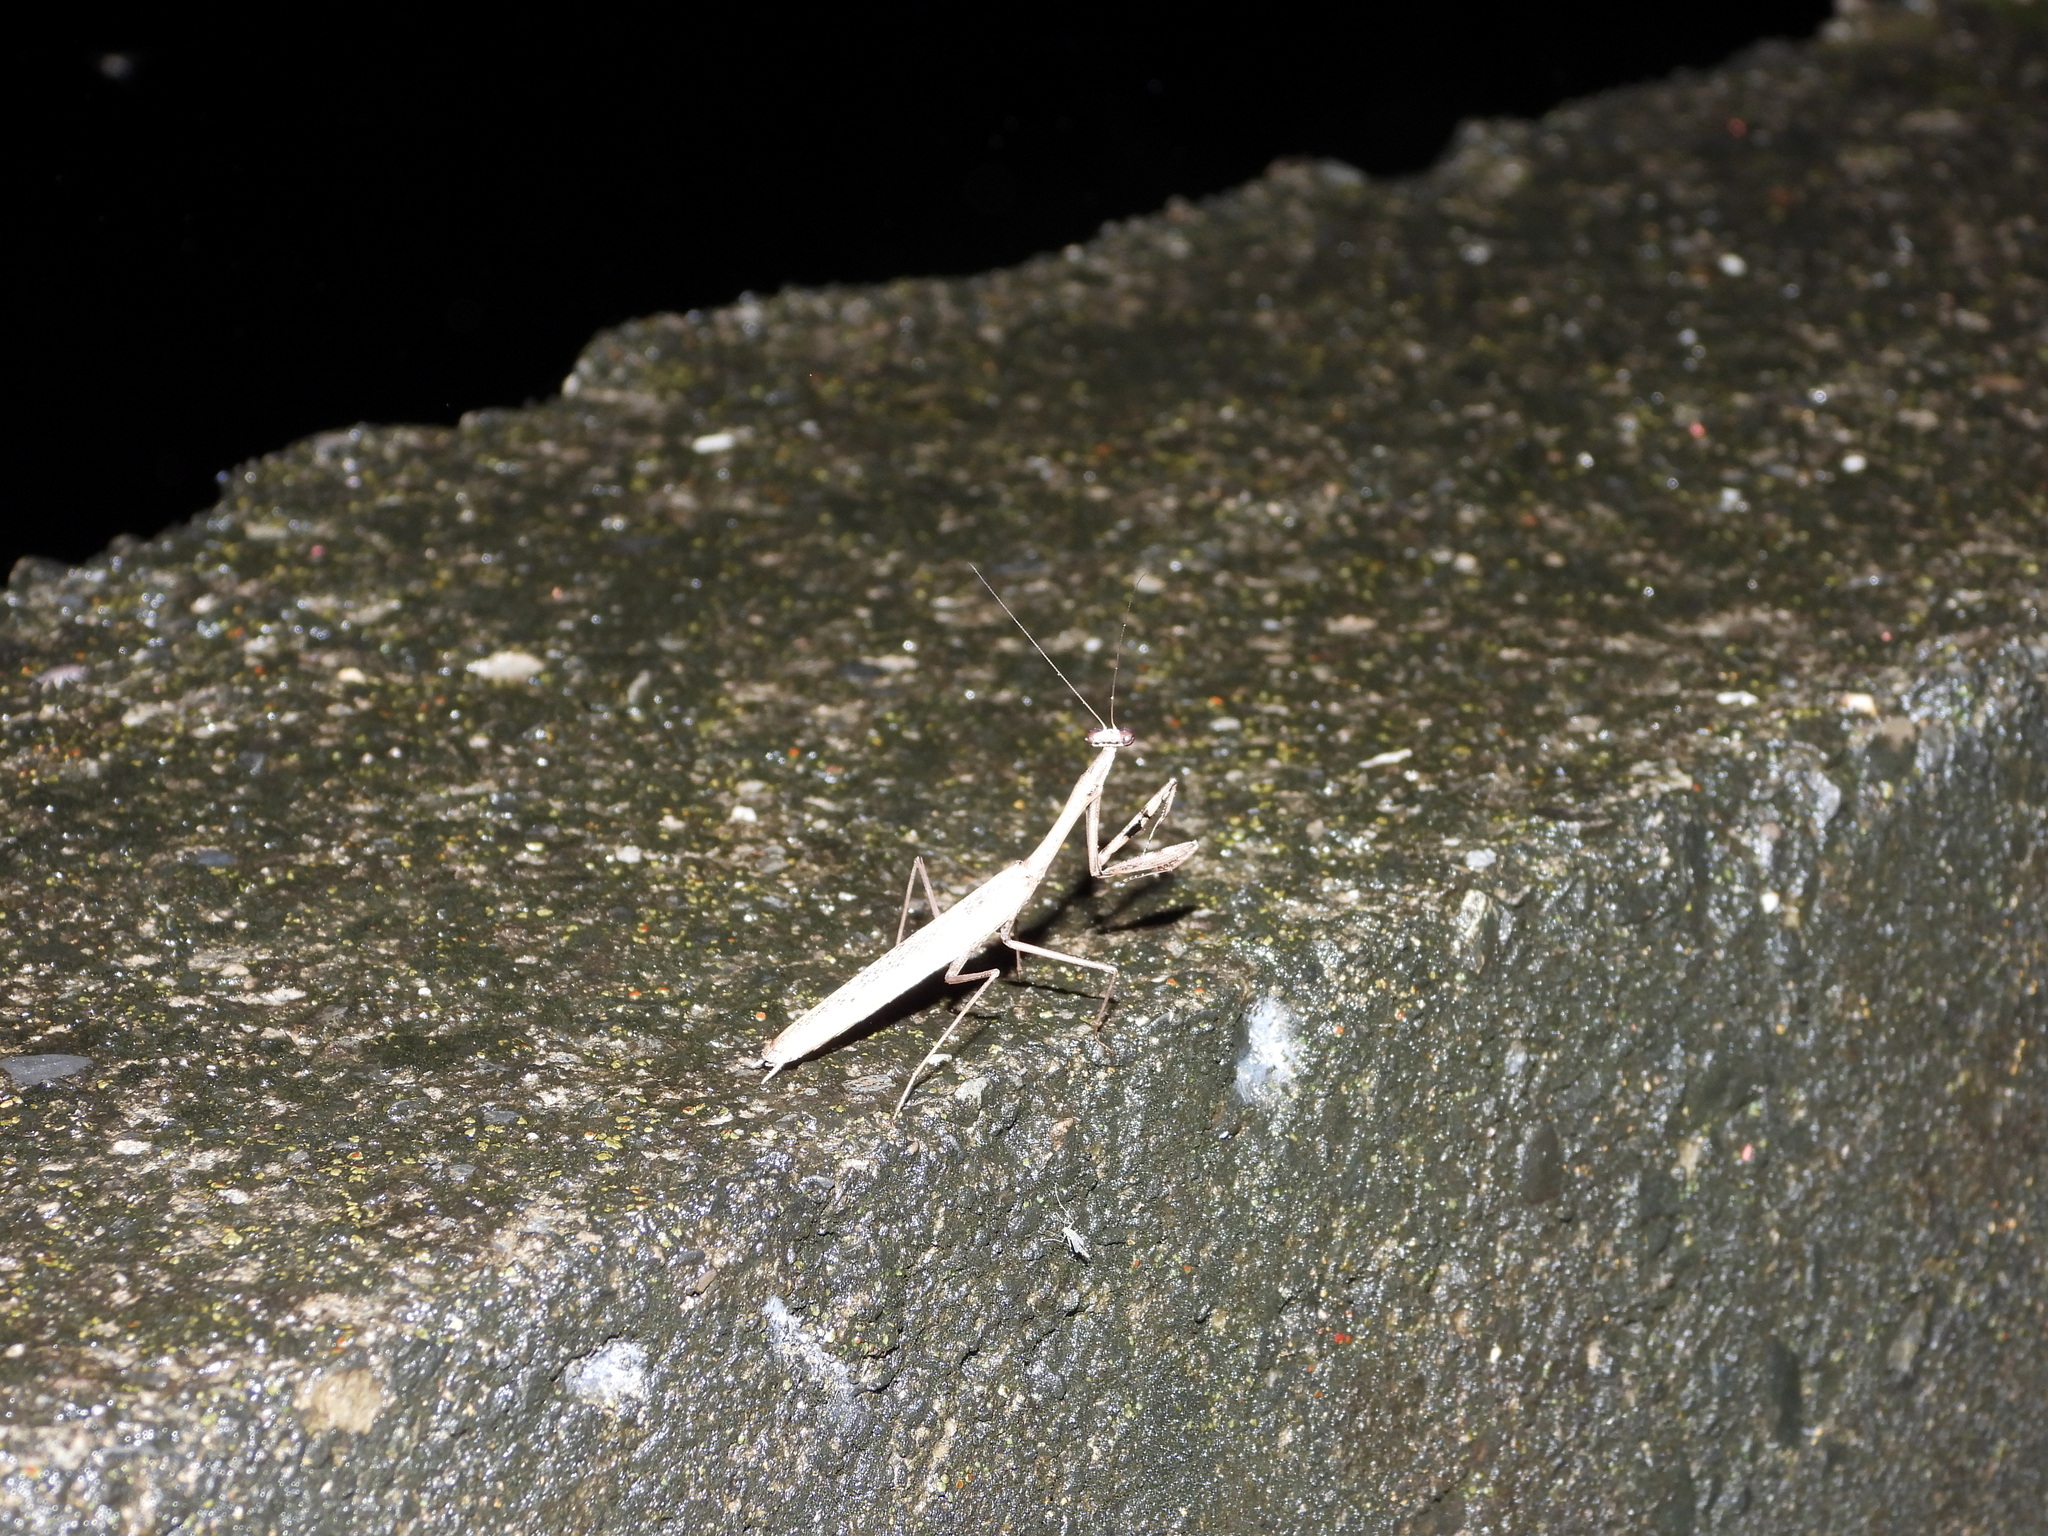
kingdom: Animalia
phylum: Arthropoda
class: Insecta
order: Mantodea
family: Mantidae
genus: Statilia
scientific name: Statilia maculata
